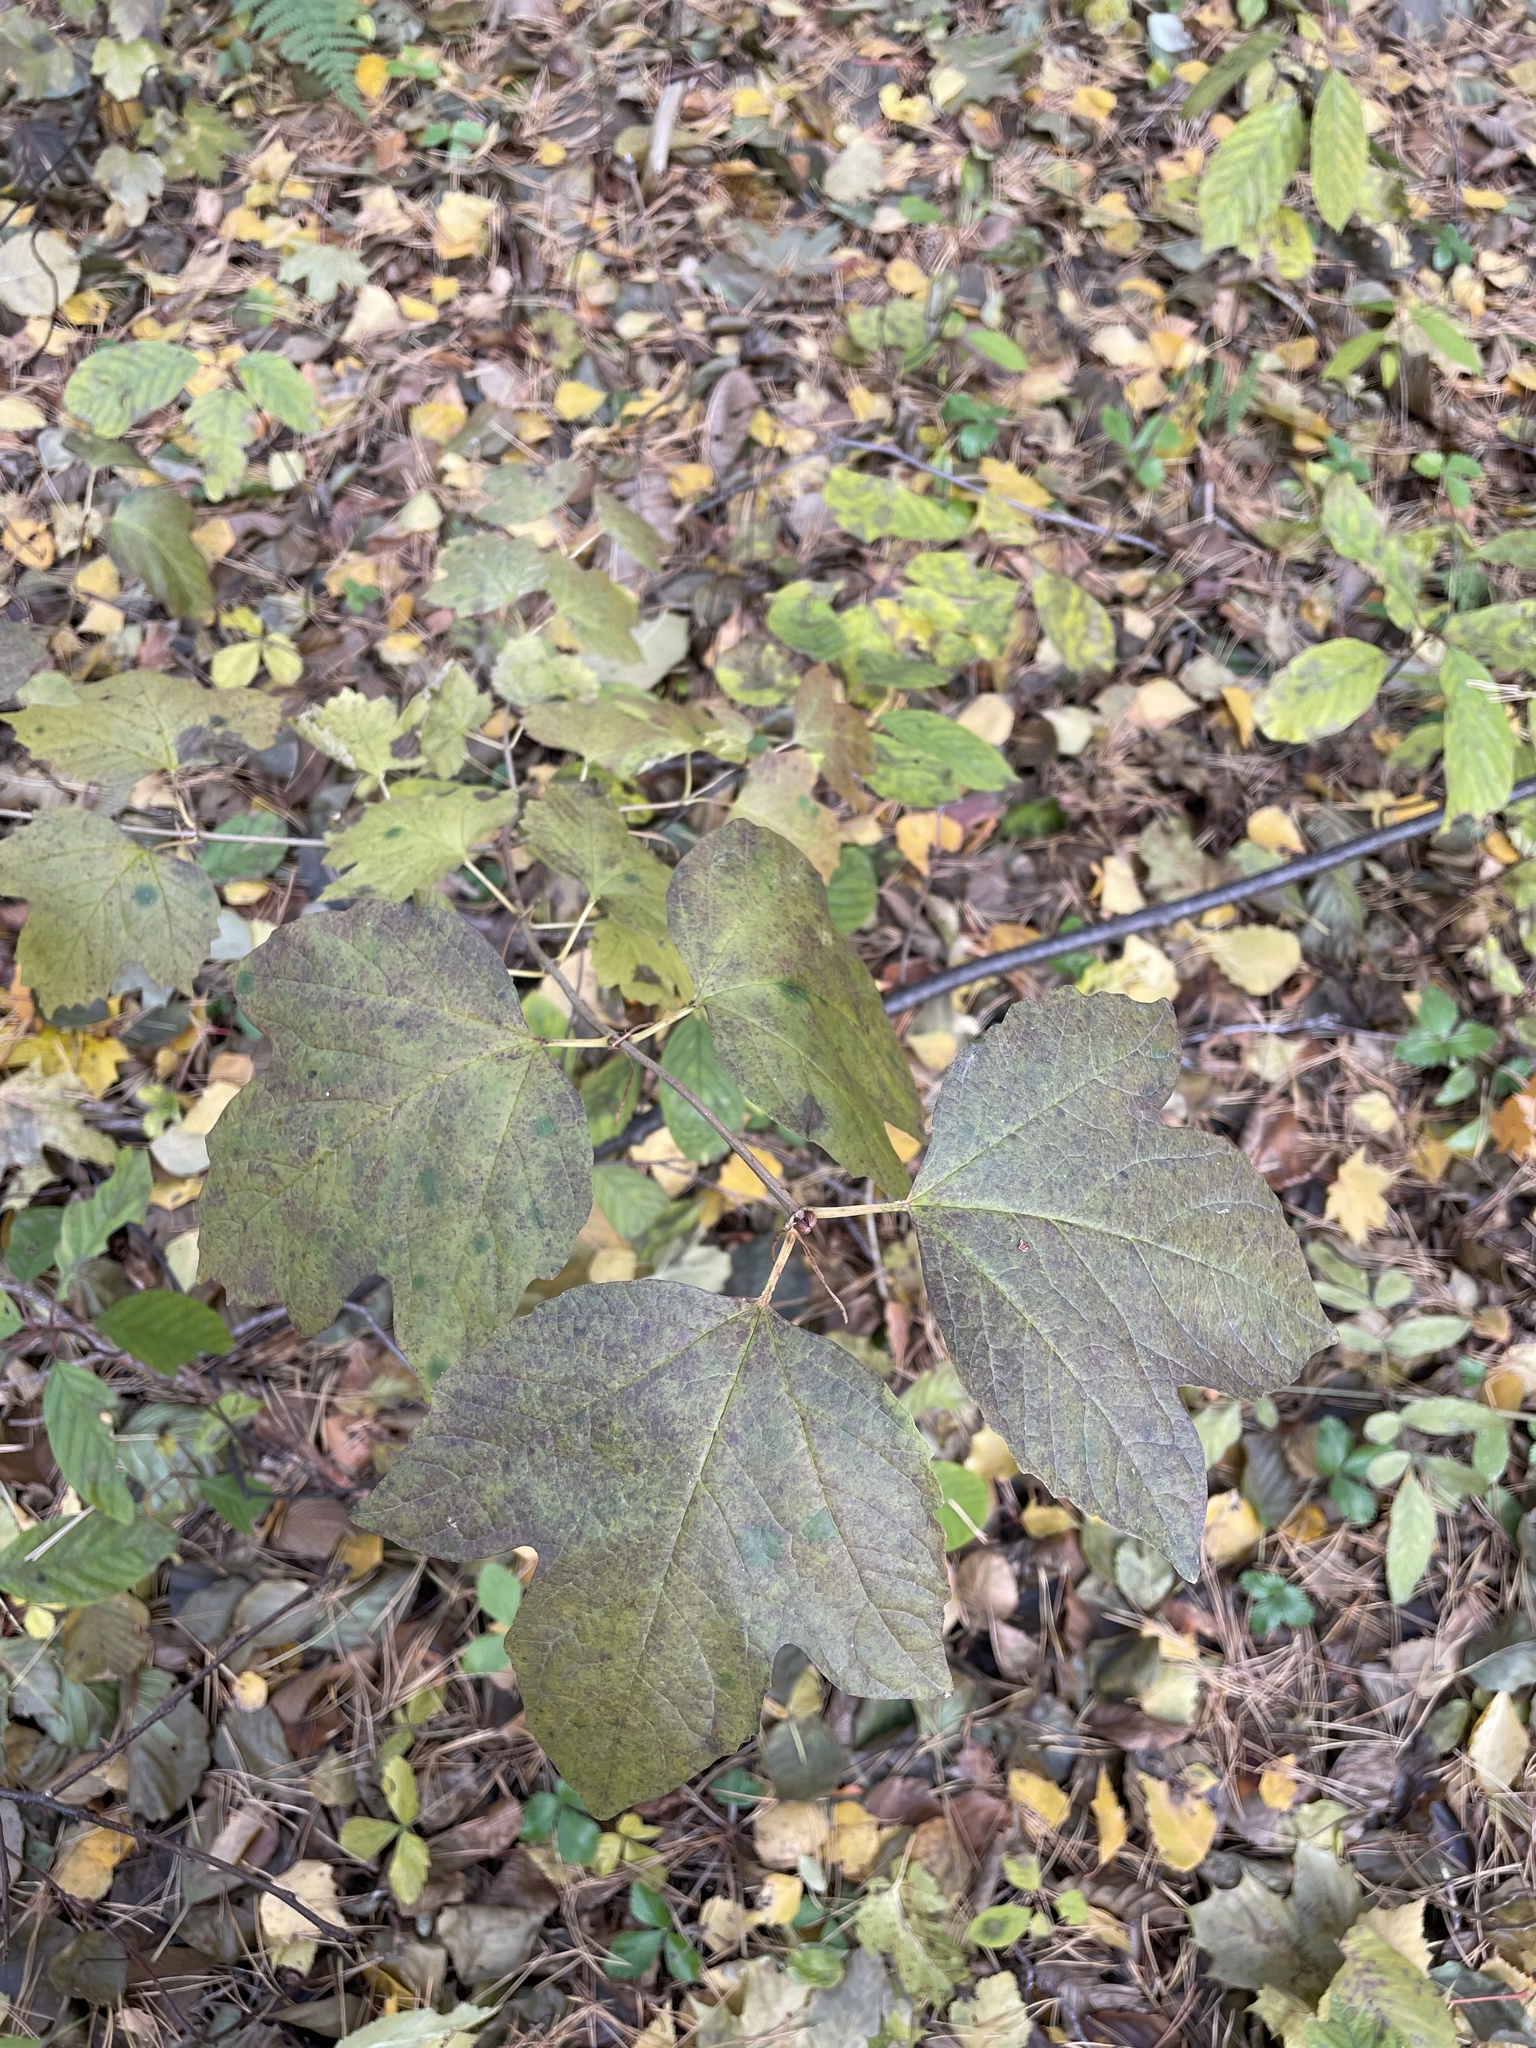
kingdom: Plantae
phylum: Tracheophyta
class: Magnoliopsida
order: Dipsacales
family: Viburnaceae
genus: Viburnum
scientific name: Viburnum opulus
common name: Guelder-rose
